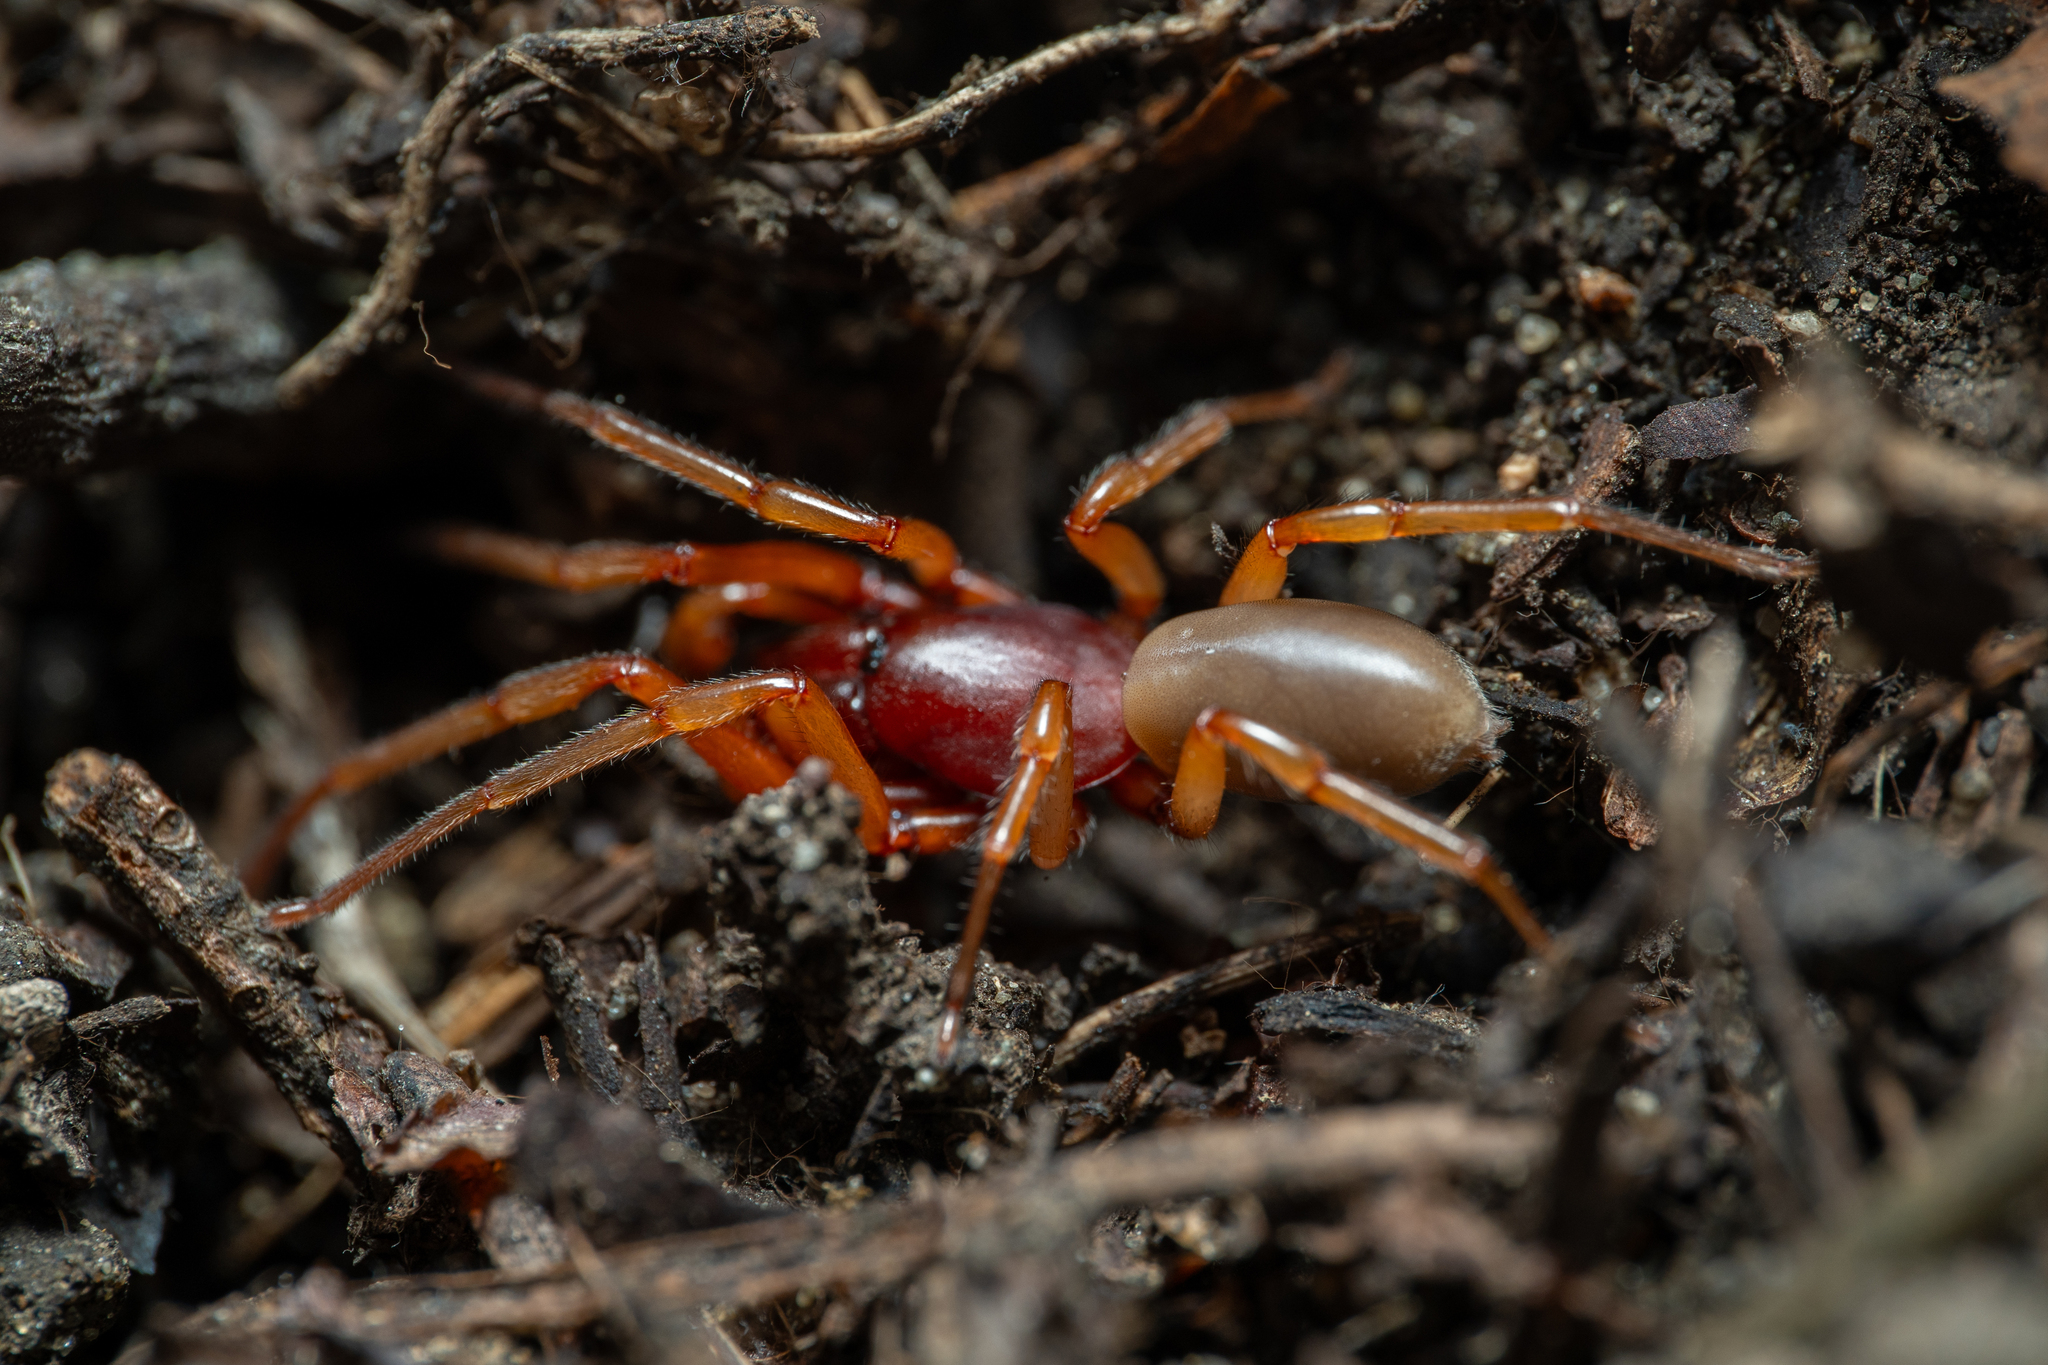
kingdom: Animalia
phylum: Arthropoda
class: Arachnida
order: Araneae
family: Dysderidae
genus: Dysdera
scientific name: Dysdera crocata
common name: Woodlouse spider
